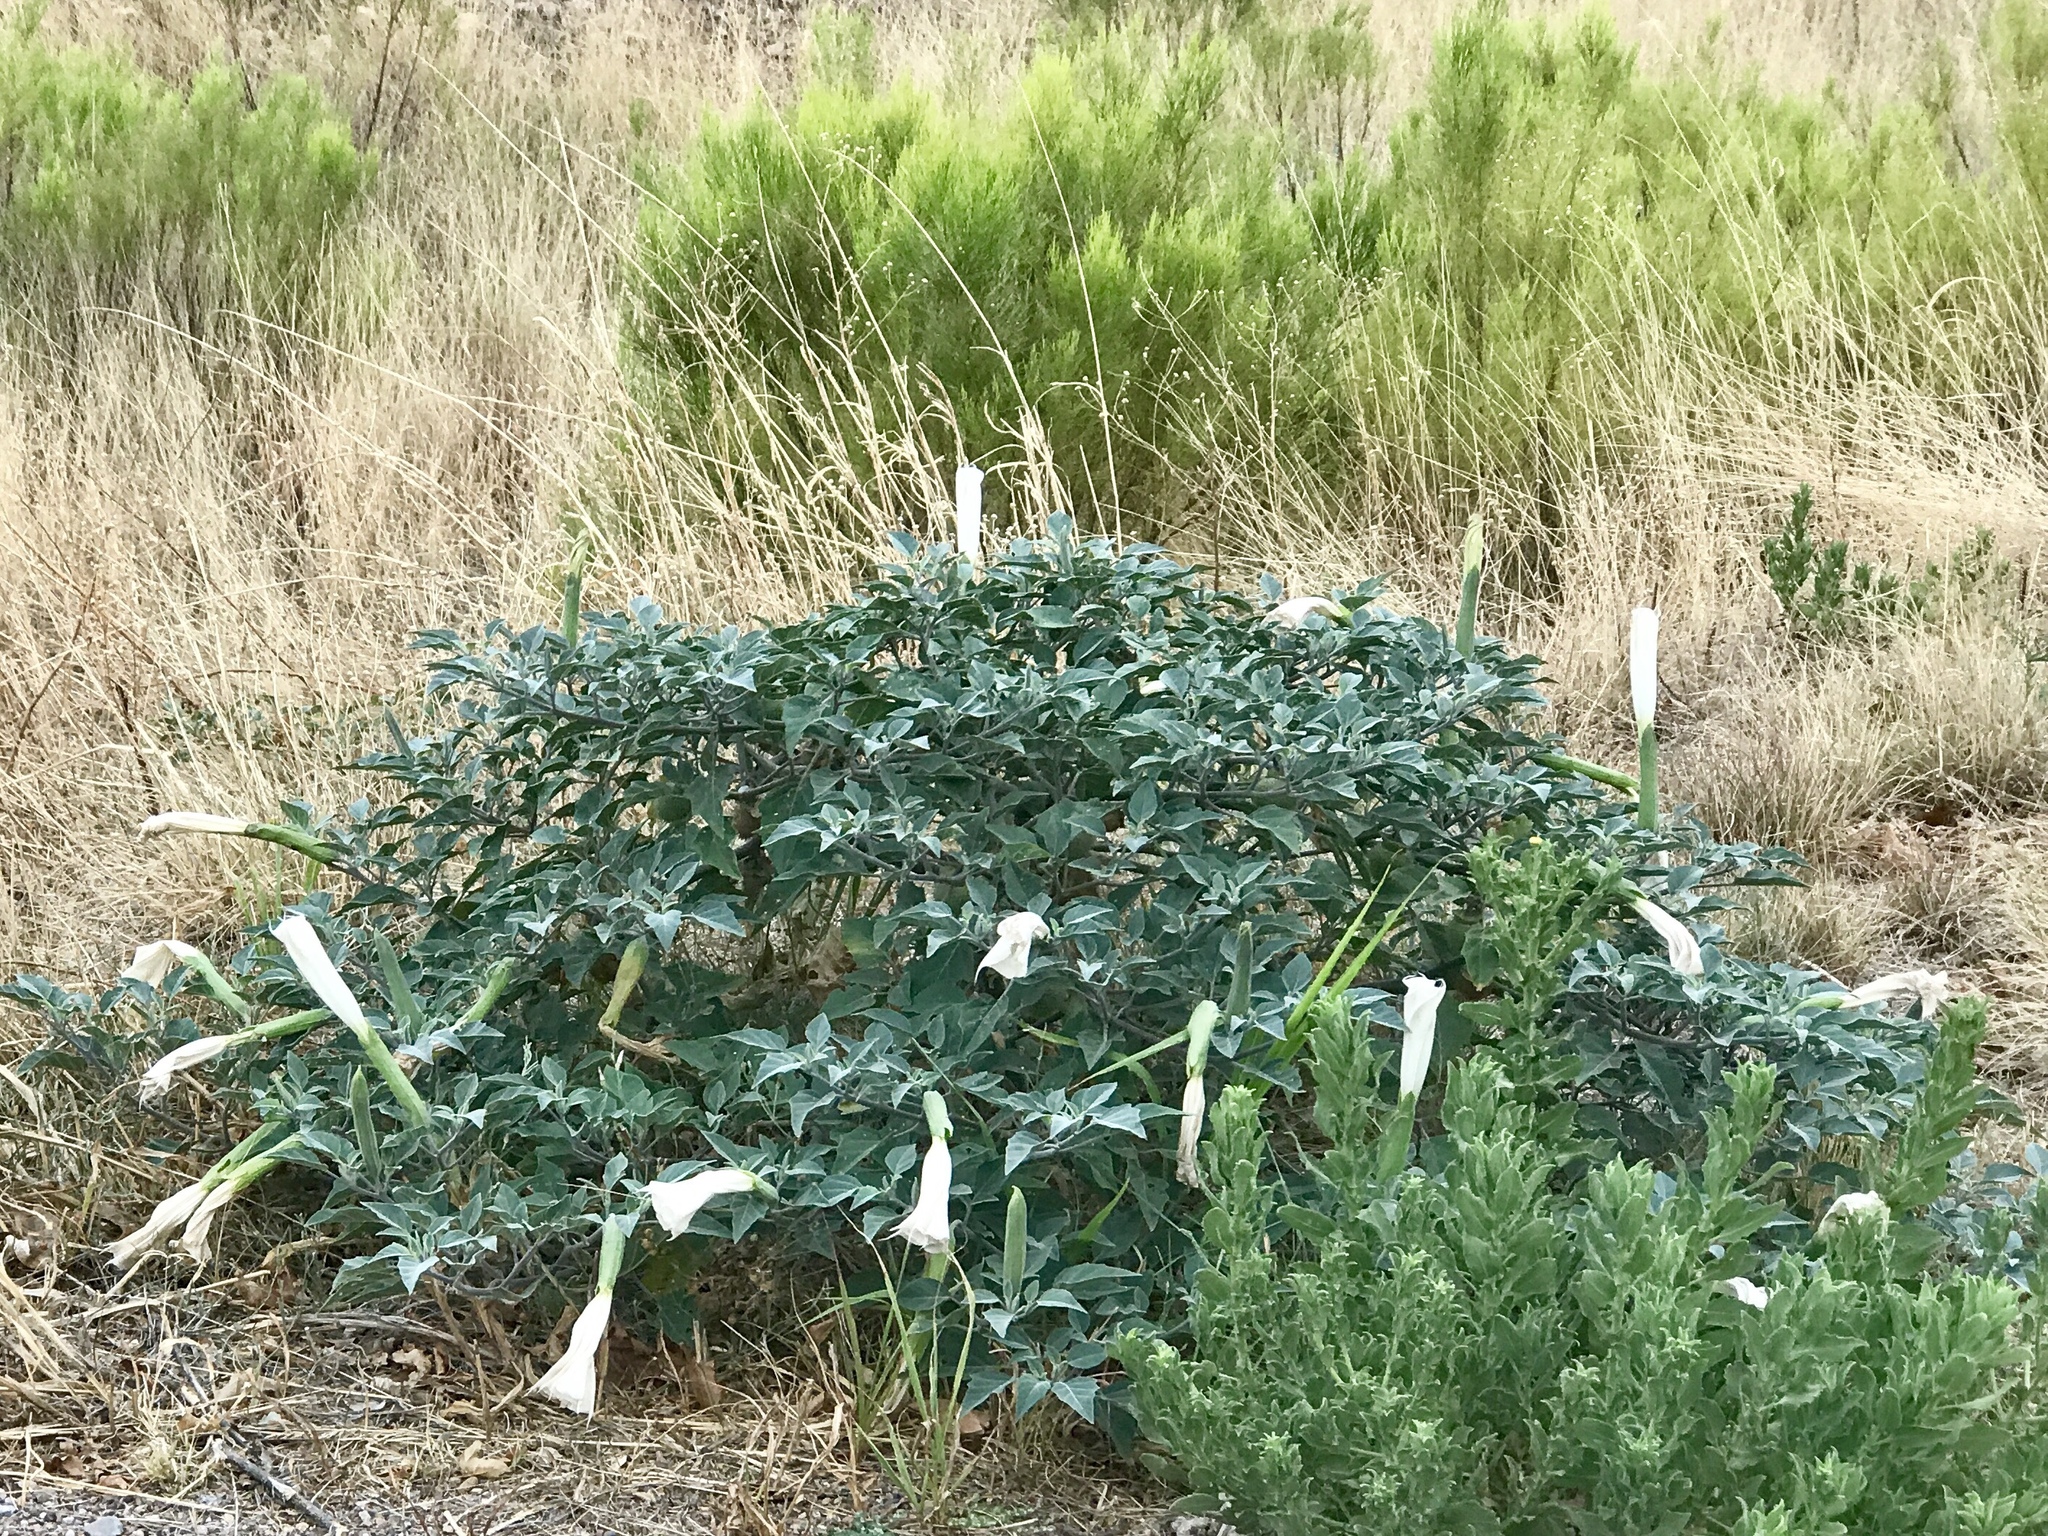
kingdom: Plantae
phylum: Tracheophyta
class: Magnoliopsida
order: Solanales
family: Solanaceae
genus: Datura
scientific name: Datura wrightii
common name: Sacred thorn-apple
